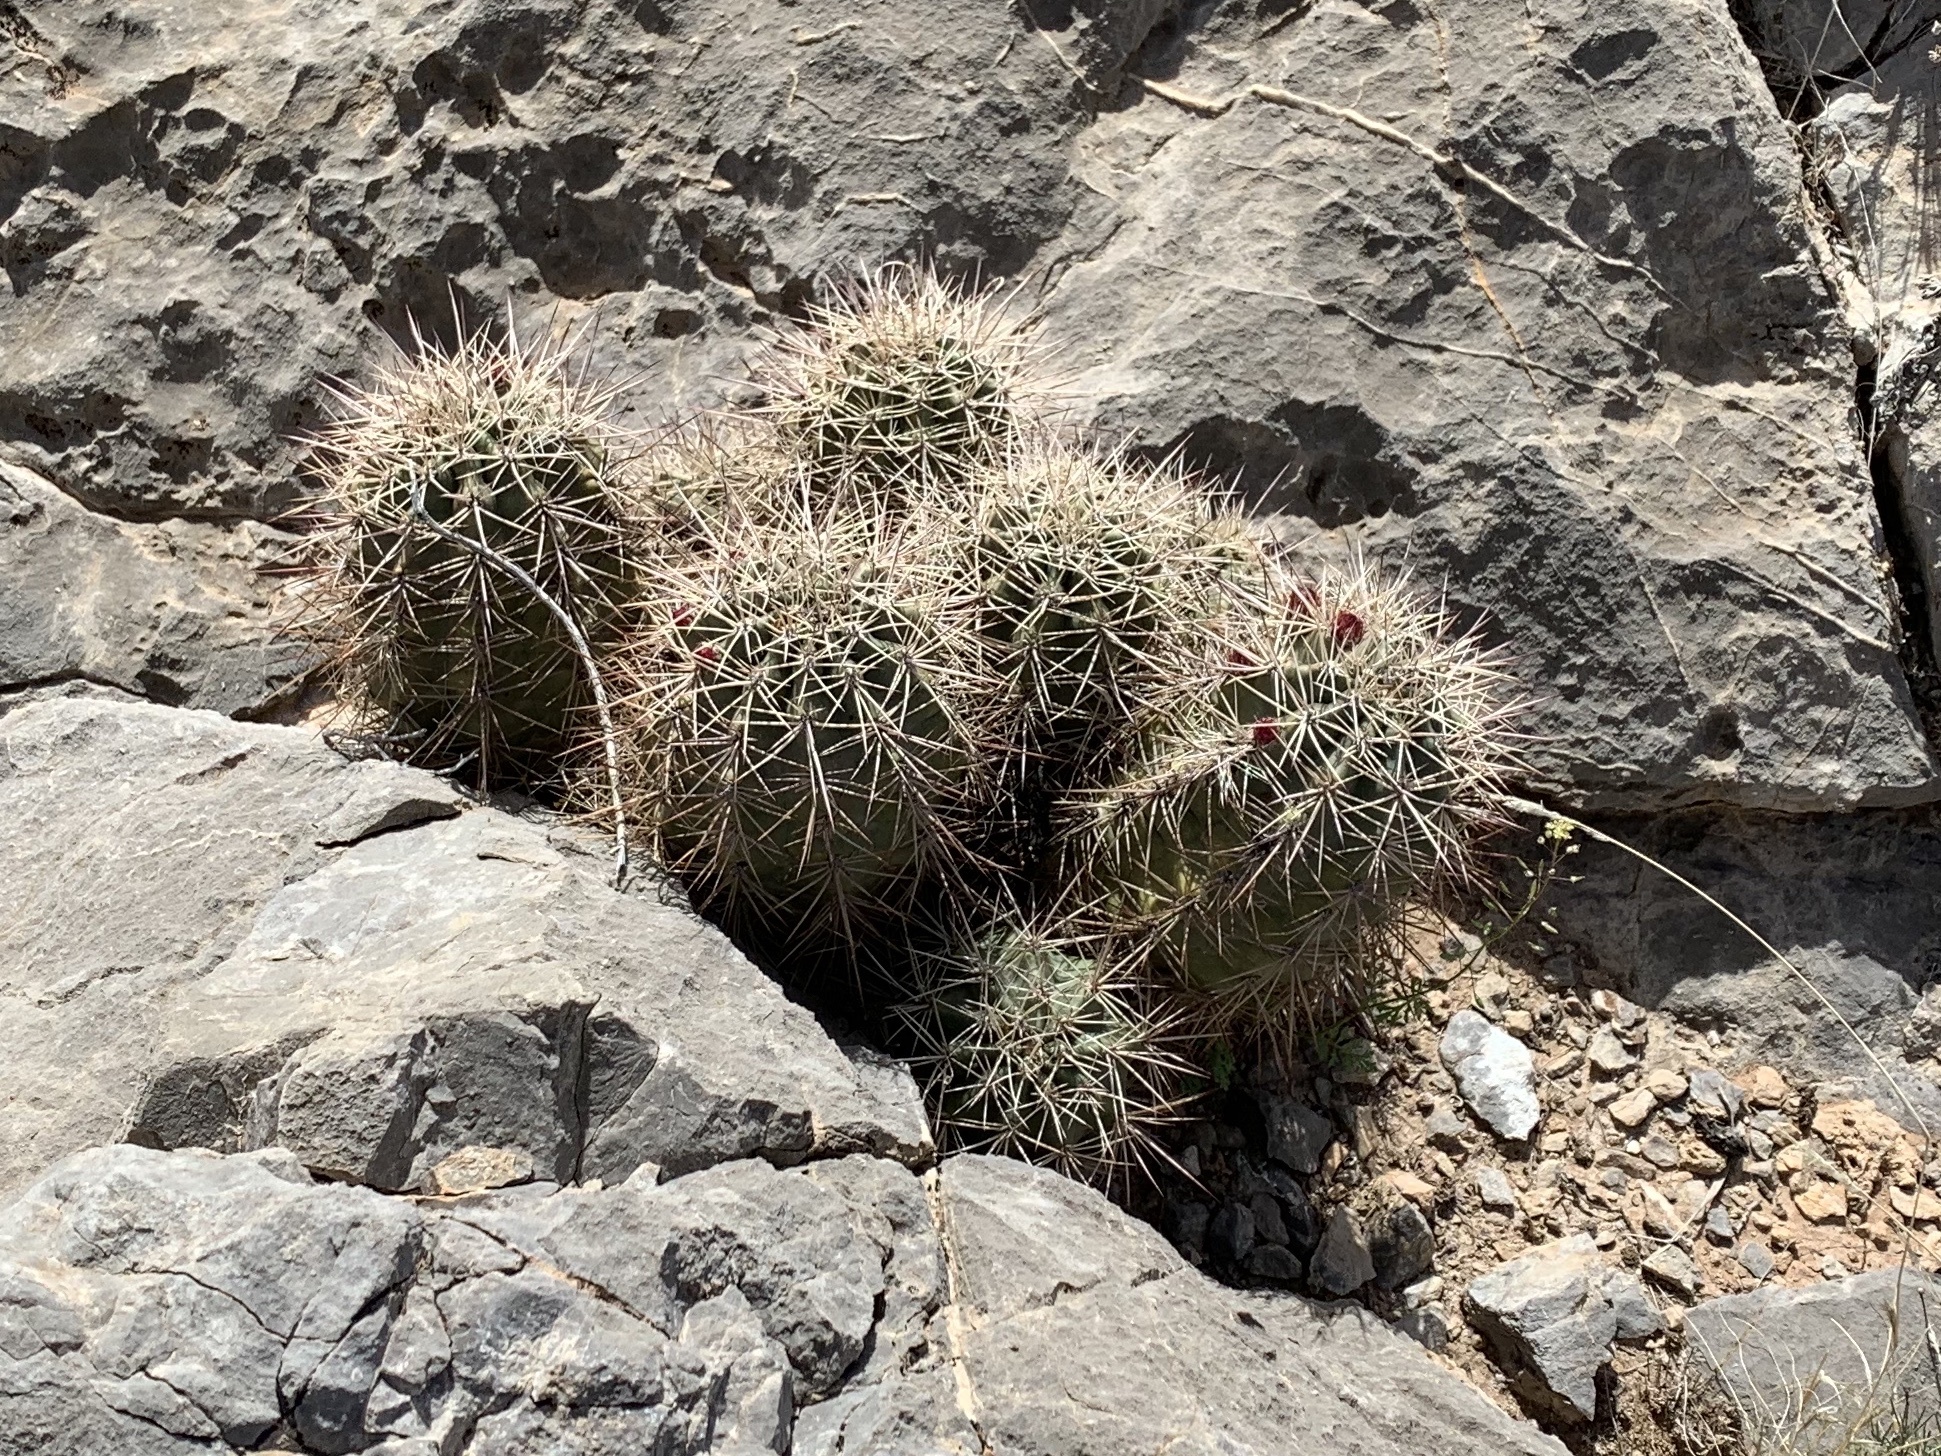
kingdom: Plantae
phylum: Tracheophyta
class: Magnoliopsida
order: Caryophyllales
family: Cactaceae
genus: Echinocereus
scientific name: Echinocereus coccineus
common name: Scarlet hedgehog cactus
